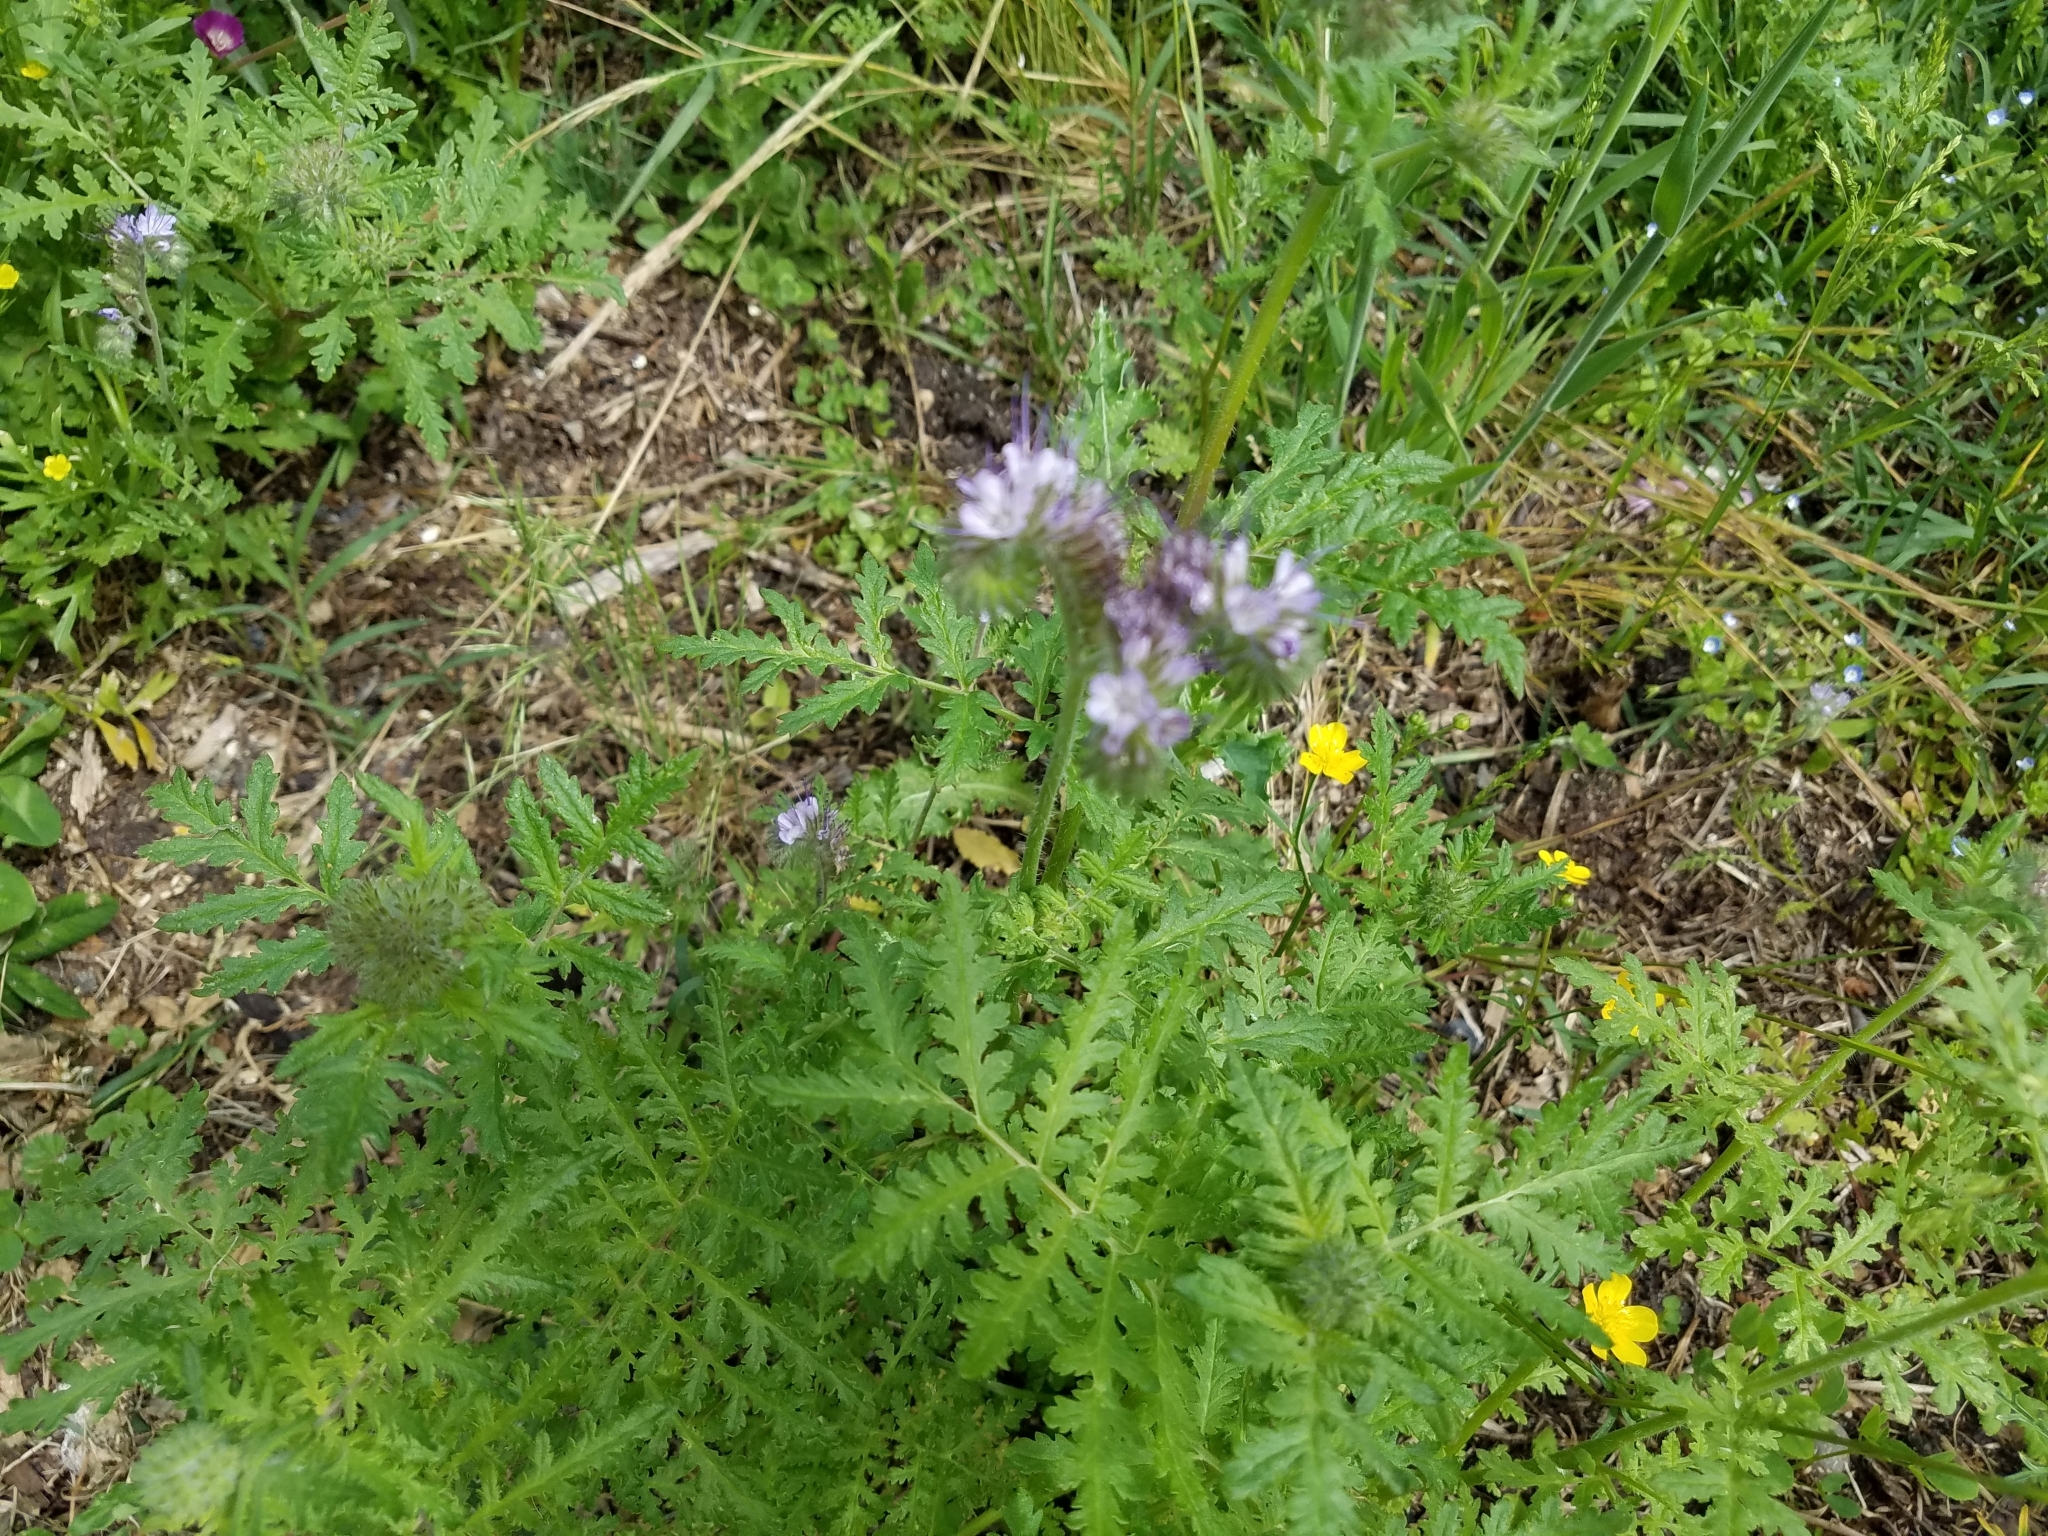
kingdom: Plantae
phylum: Tracheophyta
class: Magnoliopsida
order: Boraginales
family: Hydrophyllaceae
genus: Phacelia
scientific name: Phacelia tanacetifolia
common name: Phacelia
